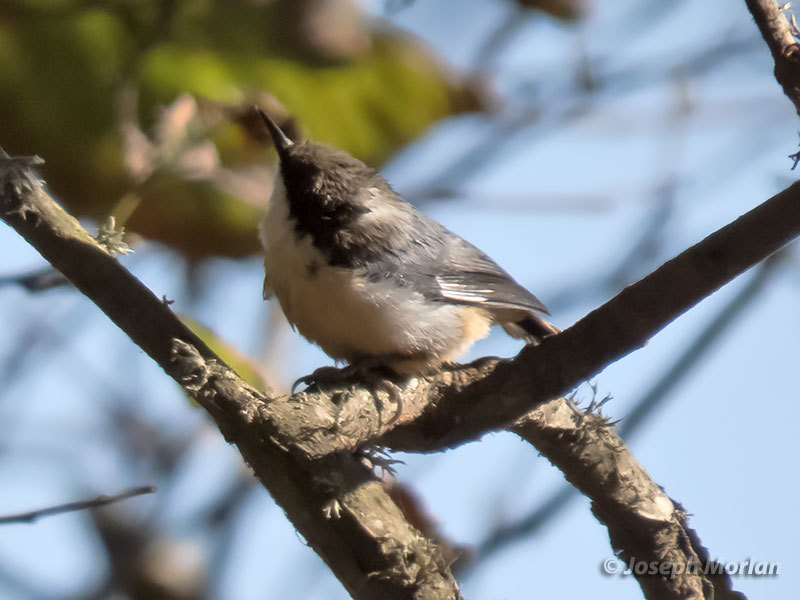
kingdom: Animalia
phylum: Chordata
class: Aves
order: Passeriformes
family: Sittidae
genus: Sitta
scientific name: Sitta pygmaea
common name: Pygmy nuthatch
